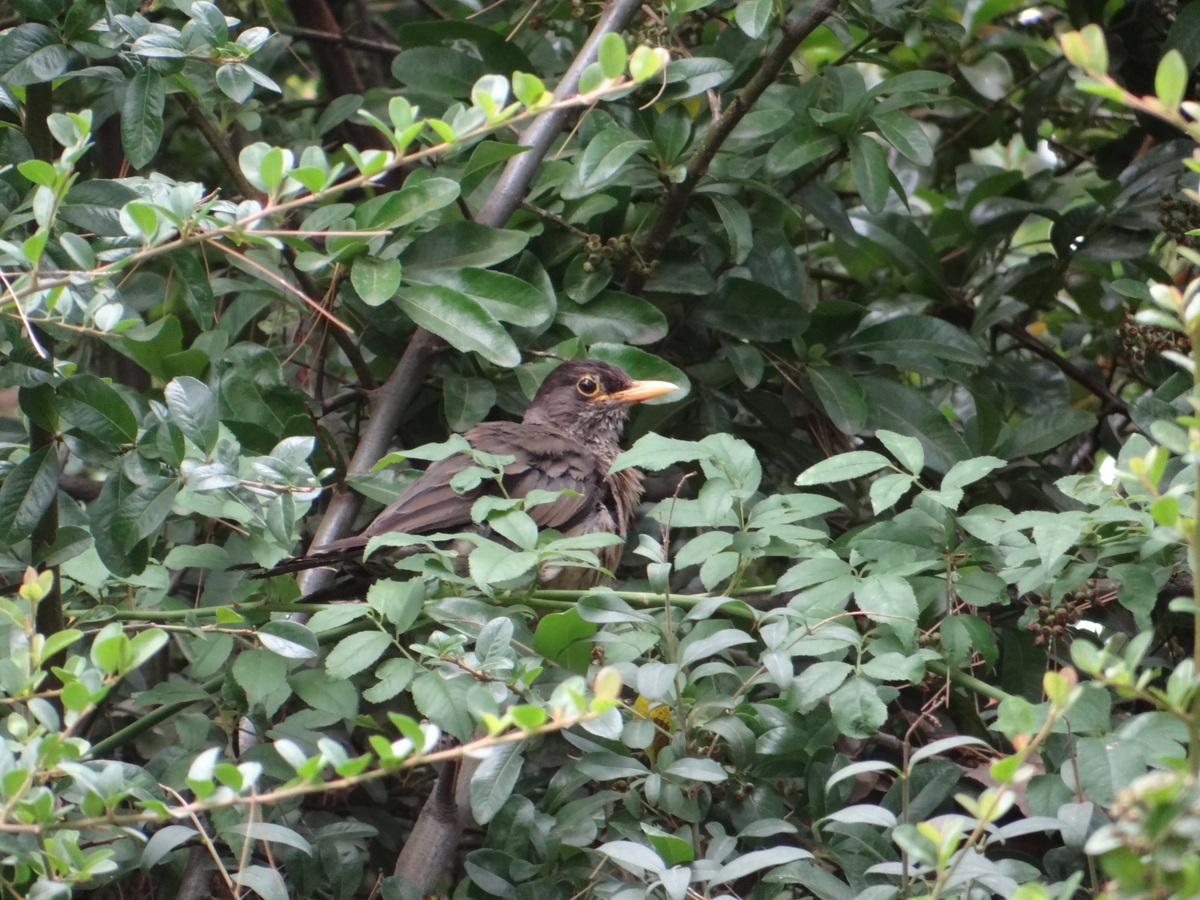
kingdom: Animalia
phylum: Chordata
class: Aves
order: Passeriformes
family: Turdidae
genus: Turdus
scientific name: Turdus falcklandii
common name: Austral thrush
